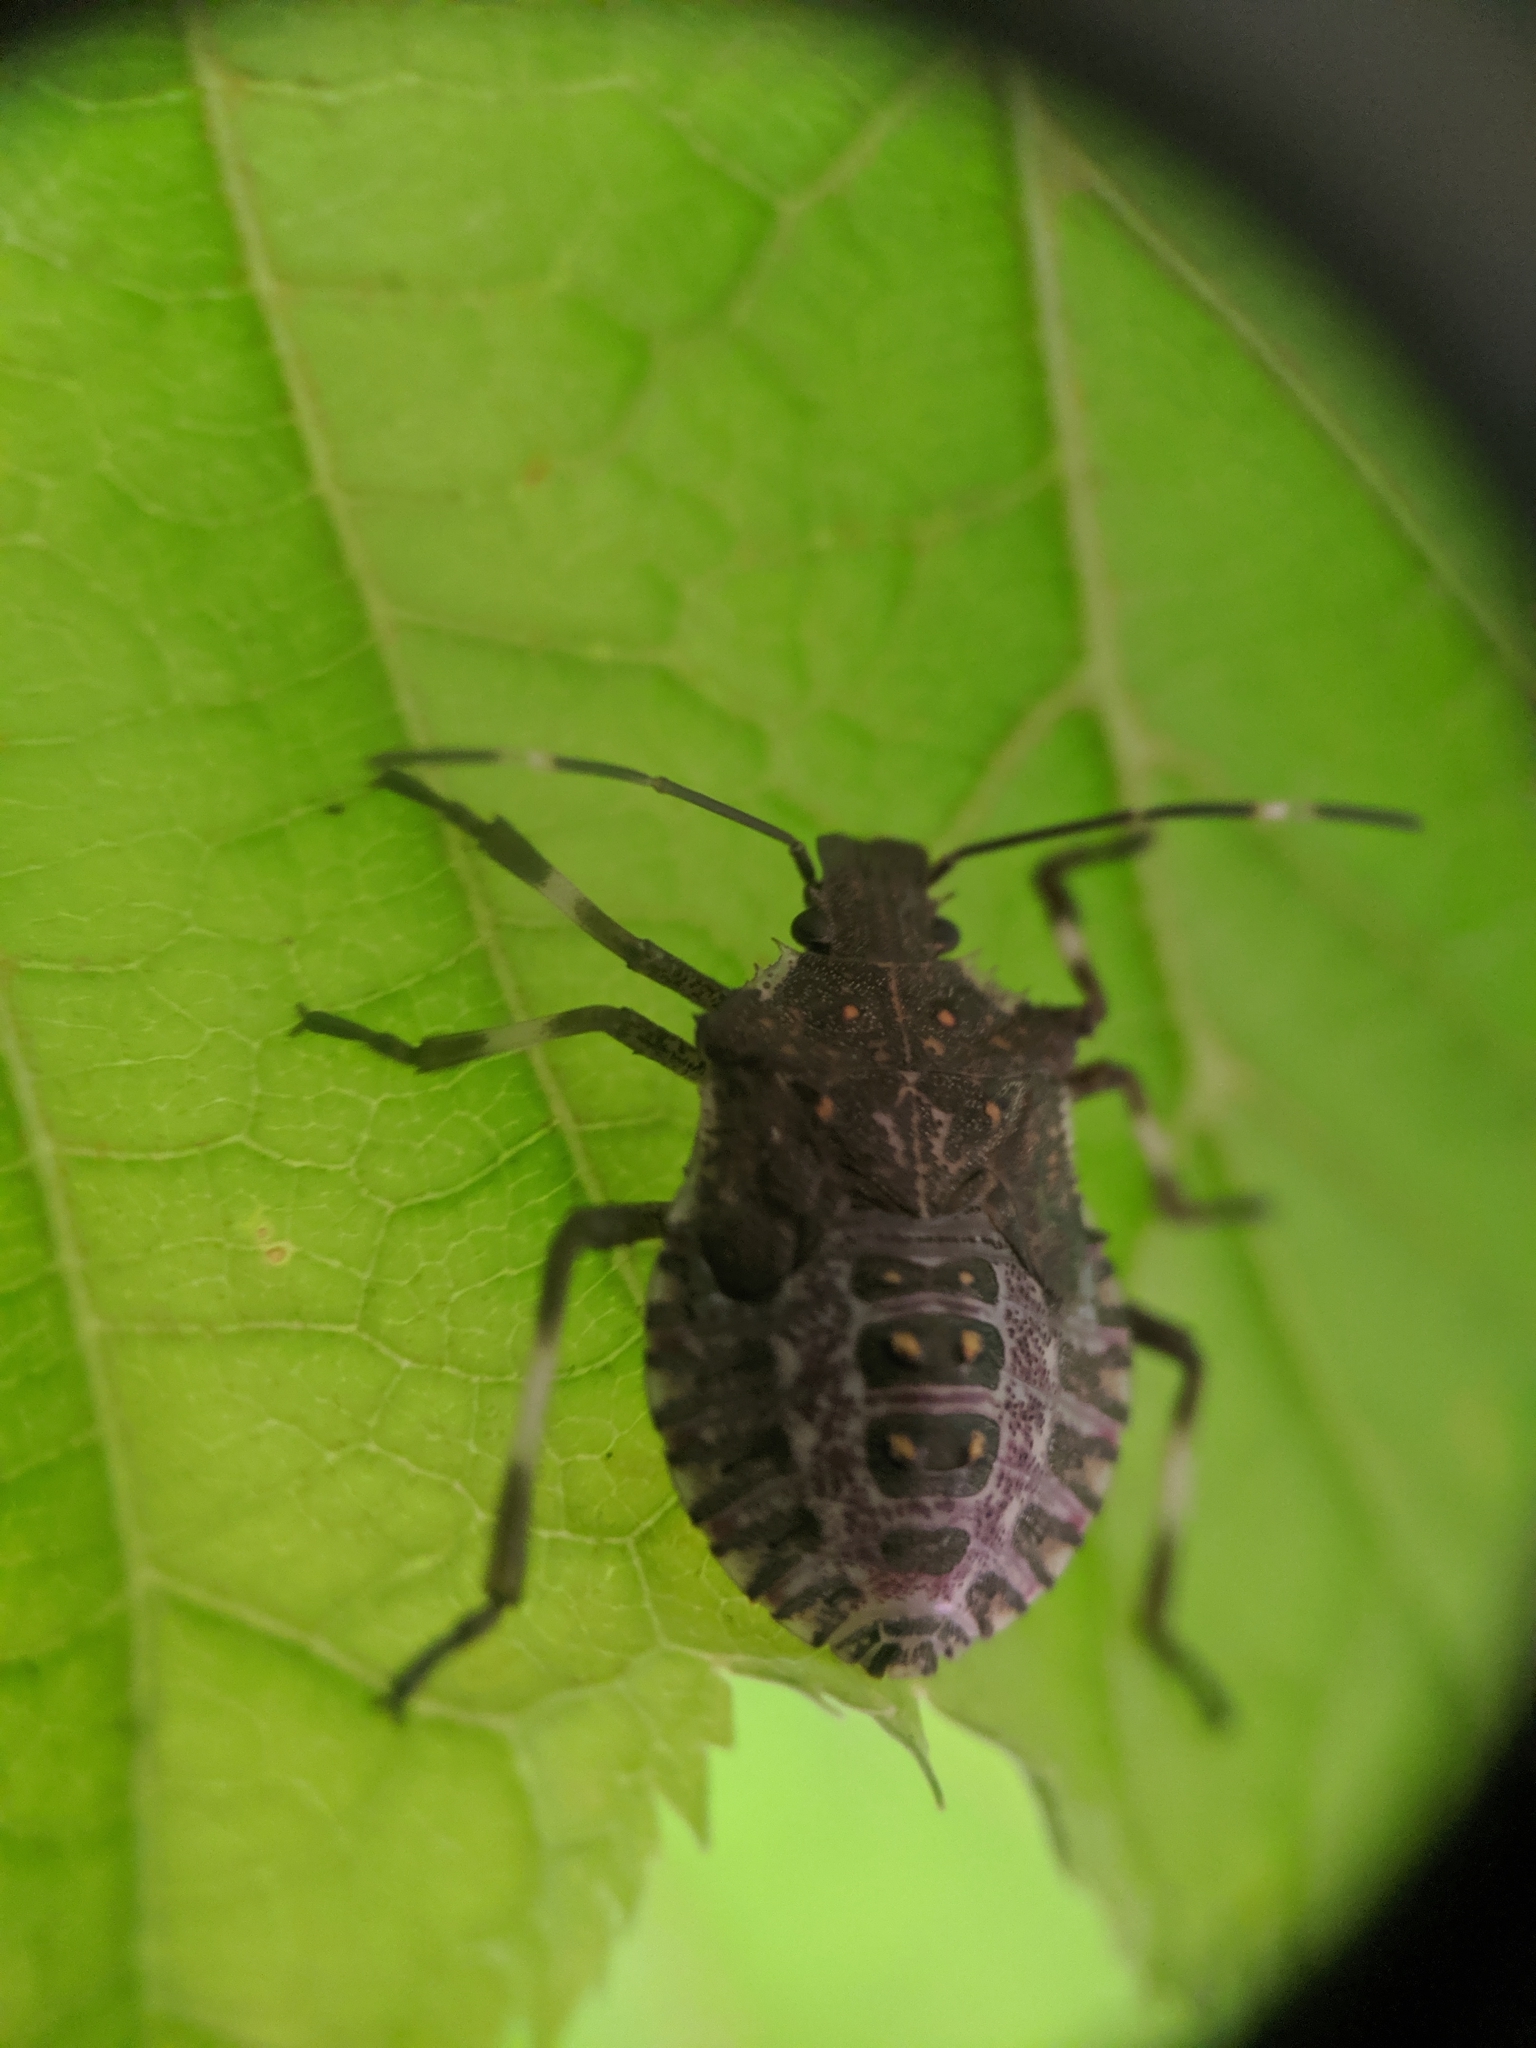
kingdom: Animalia
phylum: Arthropoda
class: Insecta
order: Hemiptera
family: Pentatomidae
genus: Halyomorpha
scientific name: Halyomorpha halys
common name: Brown marmorated stink bug
